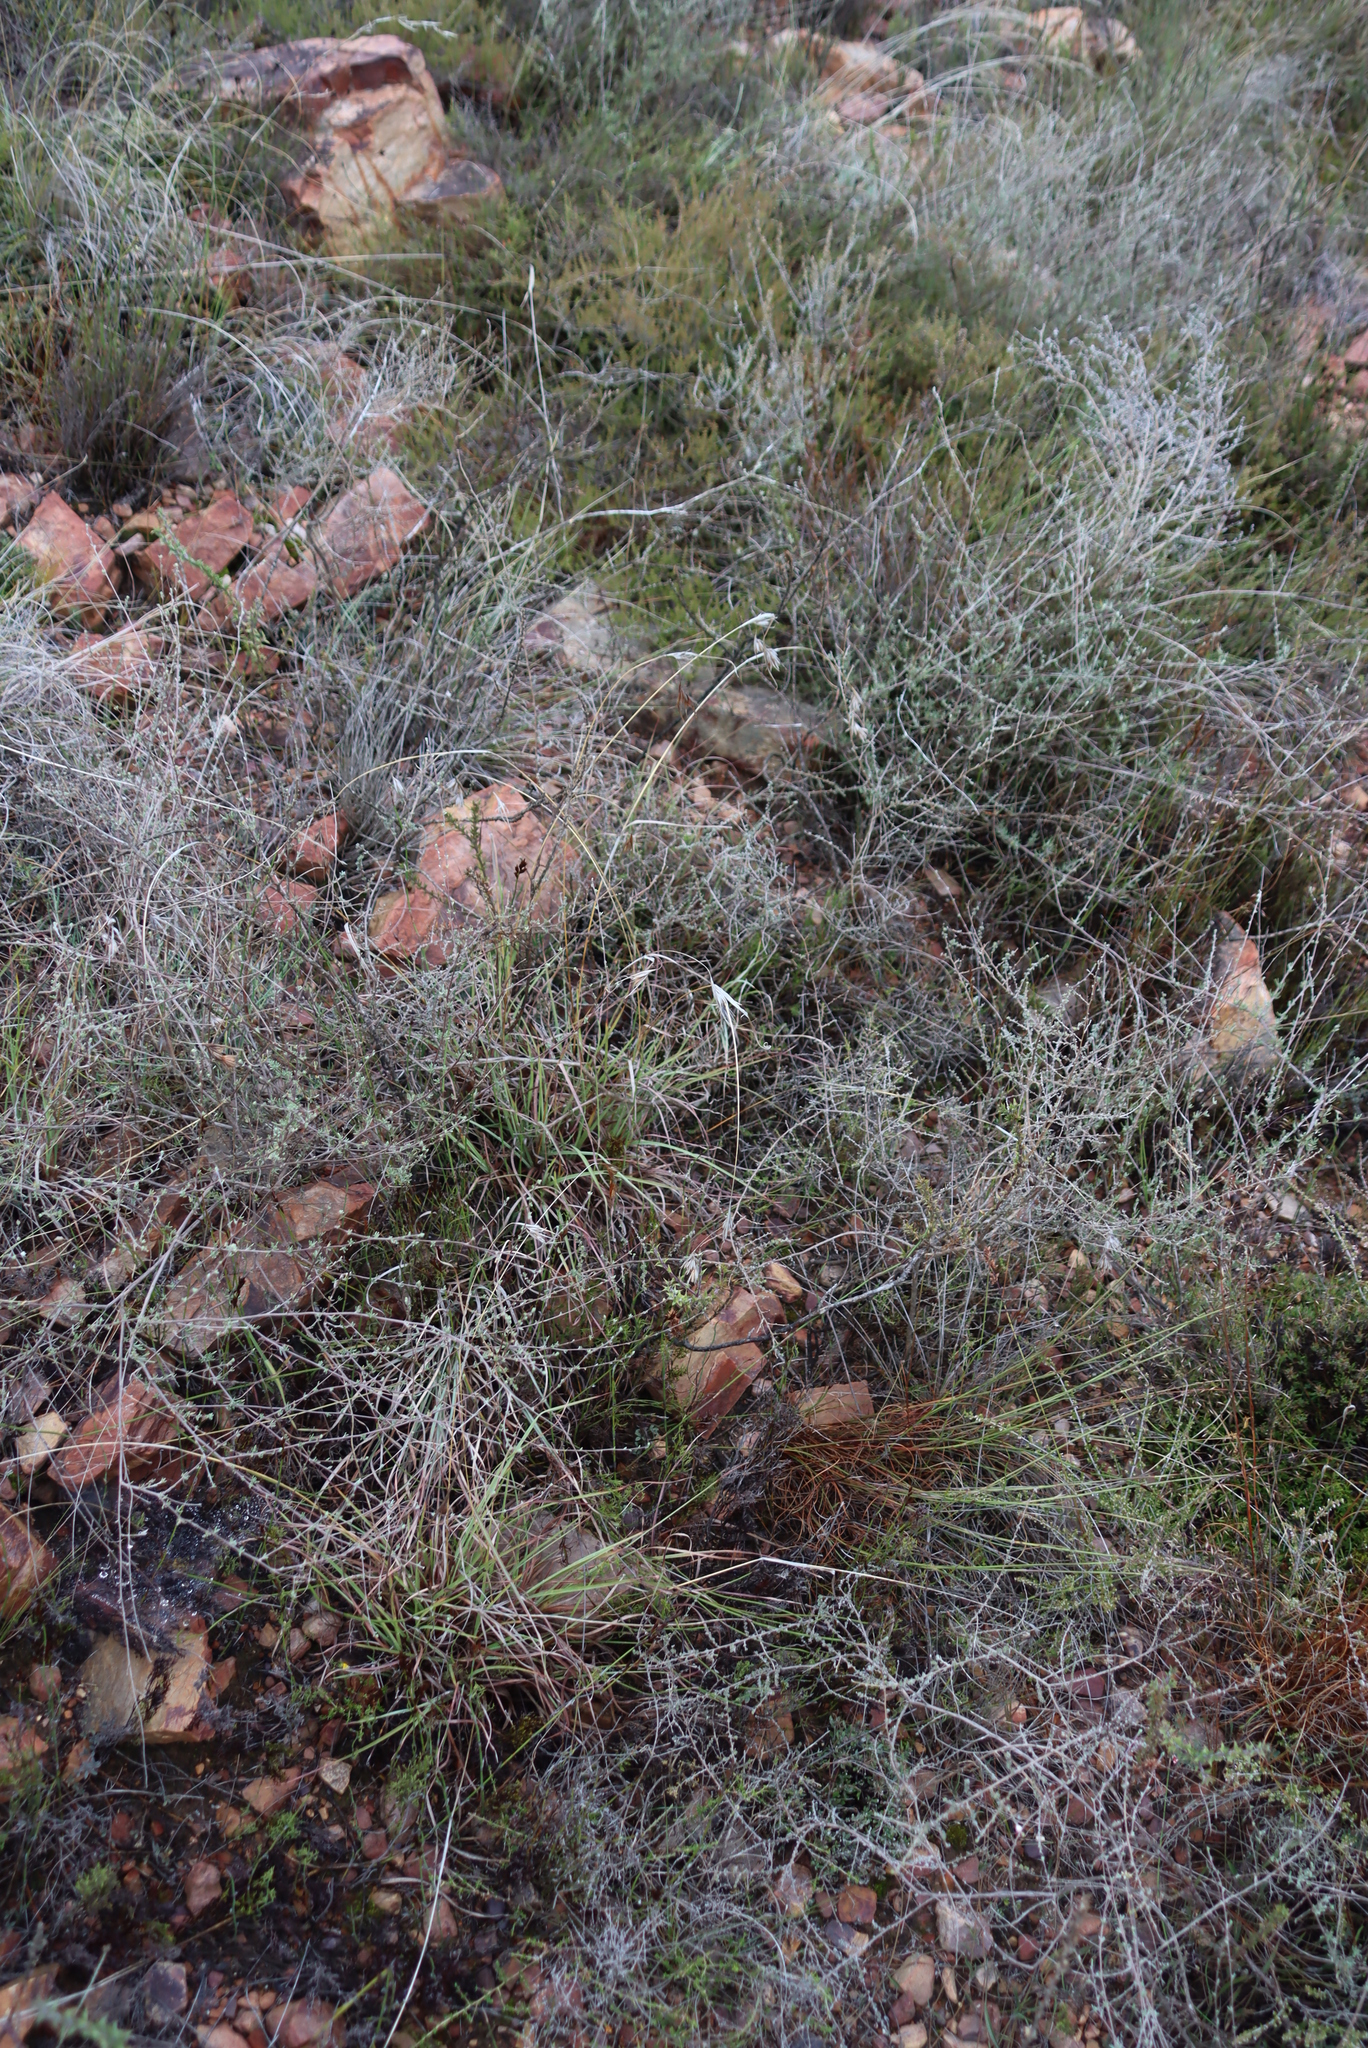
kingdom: Plantae
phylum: Tracheophyta
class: Liliopsida
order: Poales
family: Poaceae
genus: Themeda
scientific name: Themeda triandra
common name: Kangaroo grass
